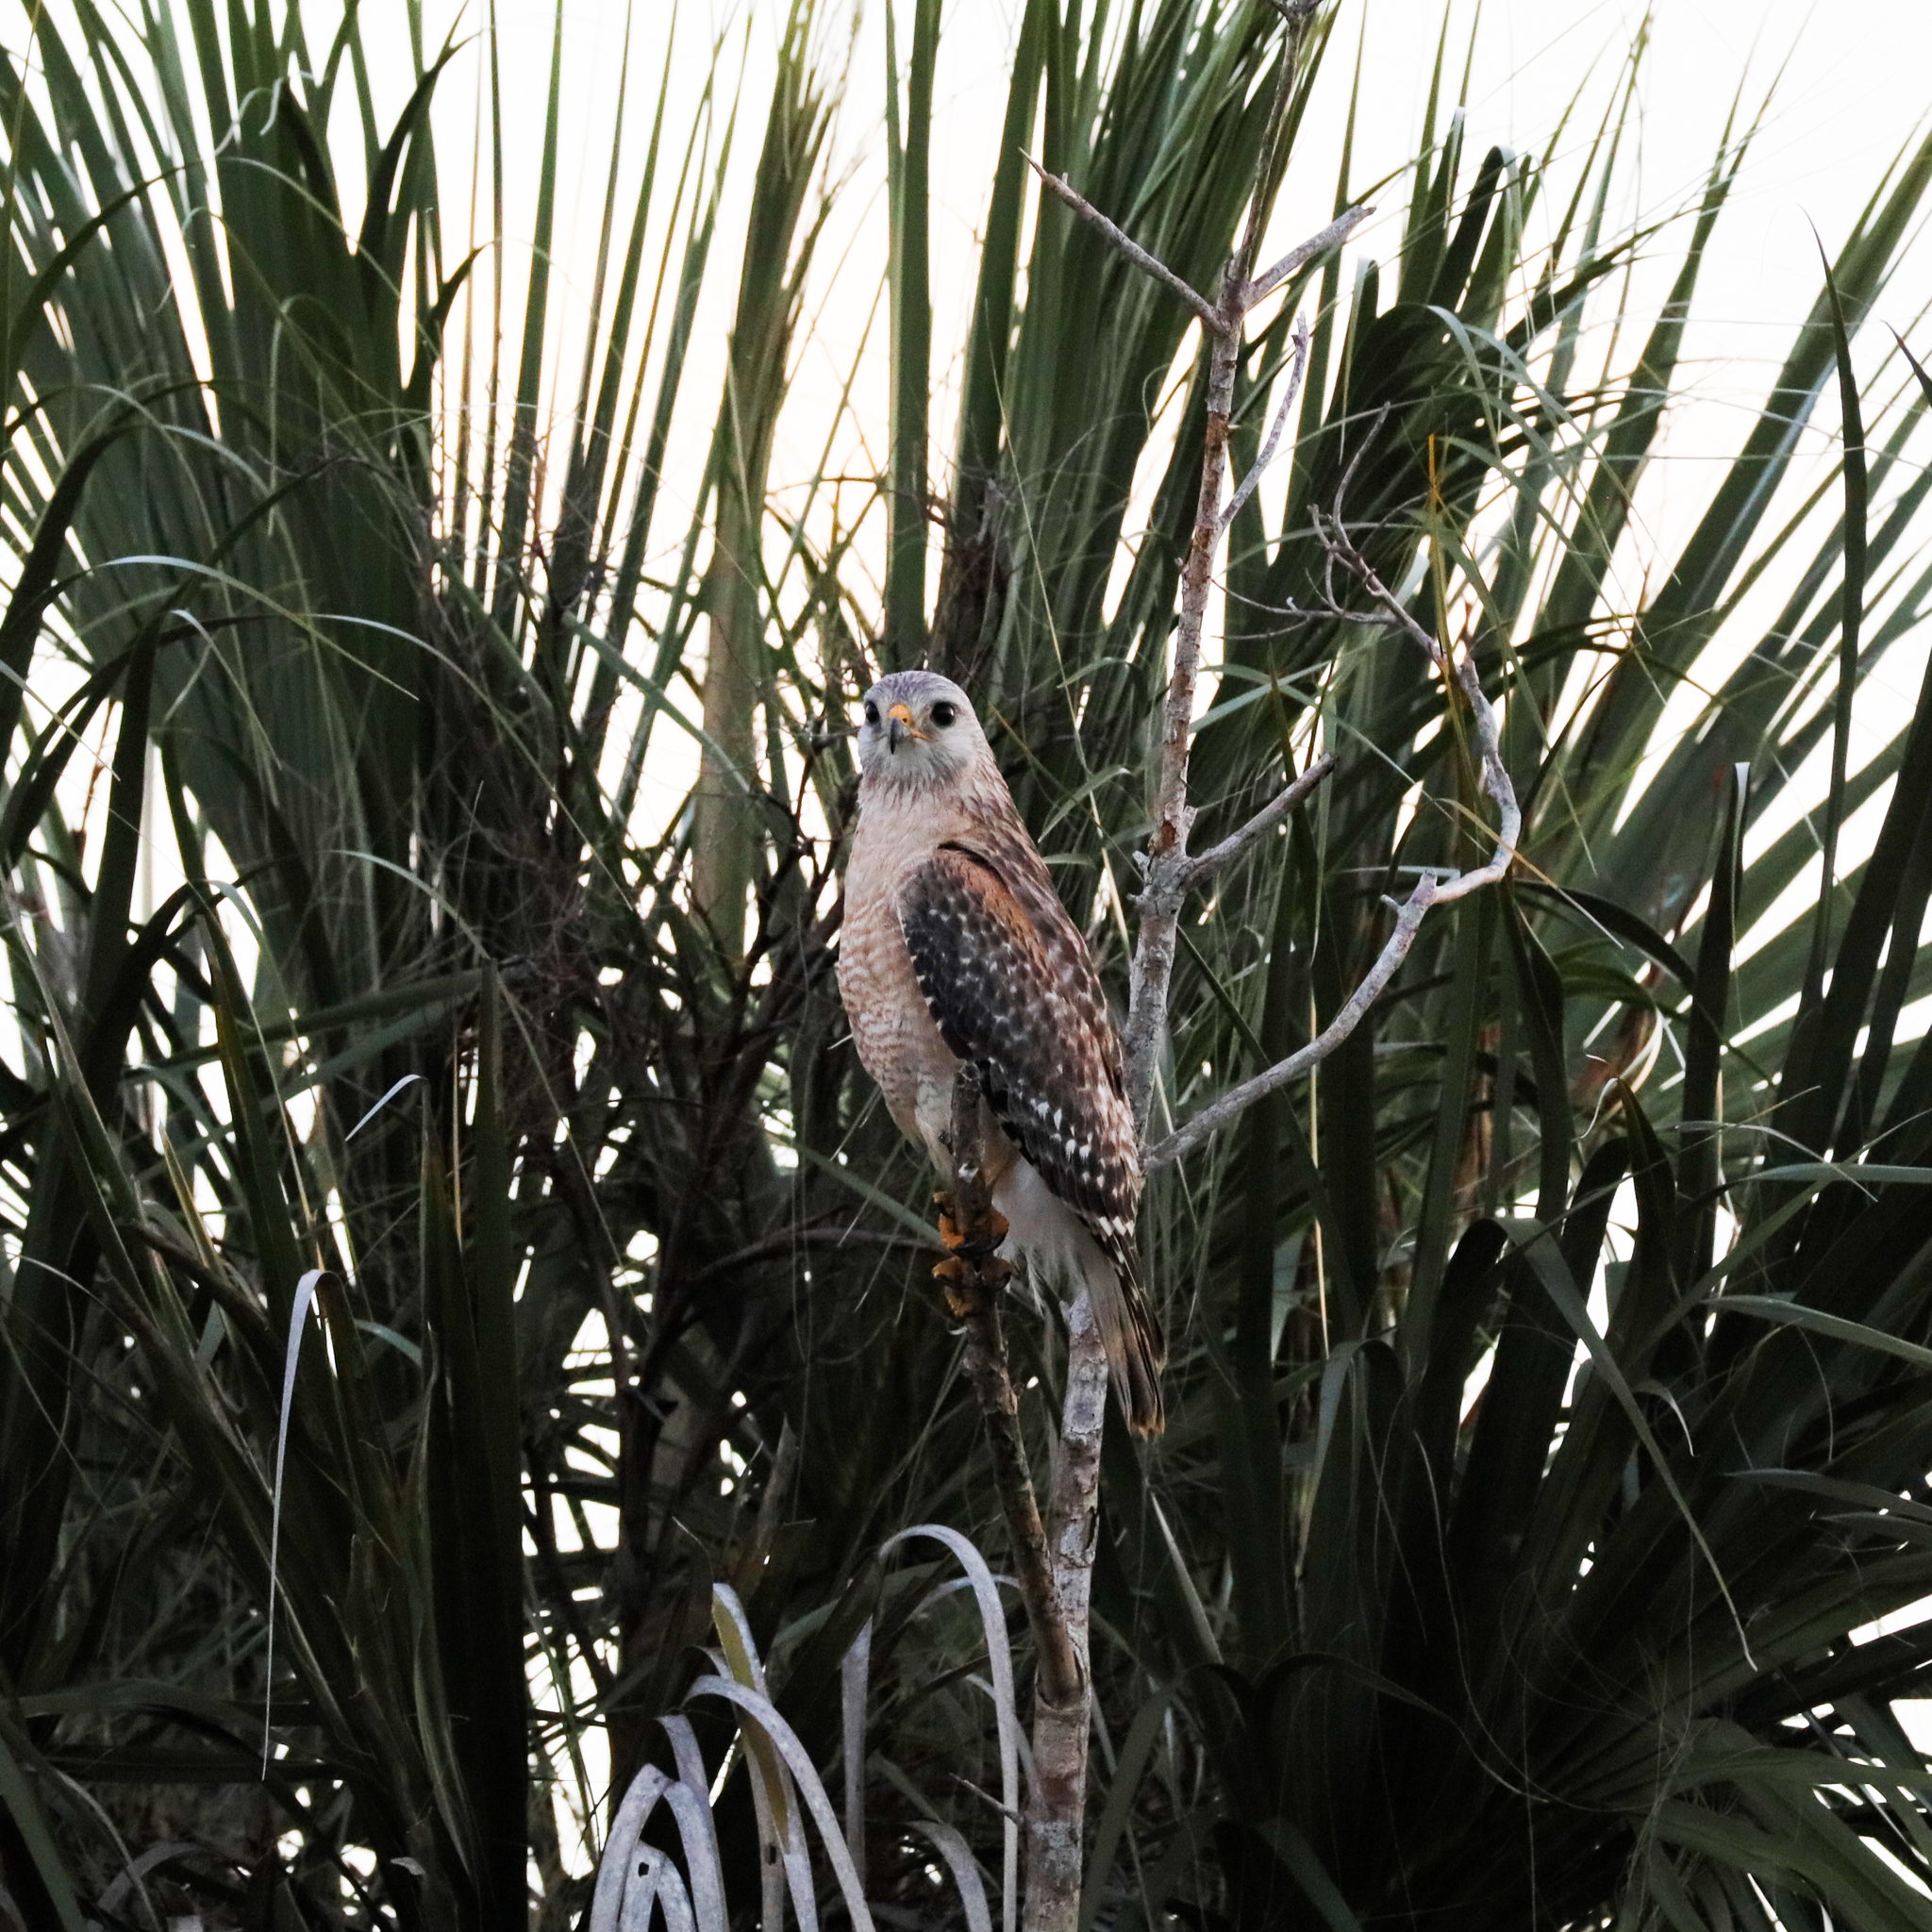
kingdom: Animalia
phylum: Chordata
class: Aves
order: Accipitriformes
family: Accipitridae
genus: Buteo
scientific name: Buteo lineatus
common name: Red-shouldered hawk
